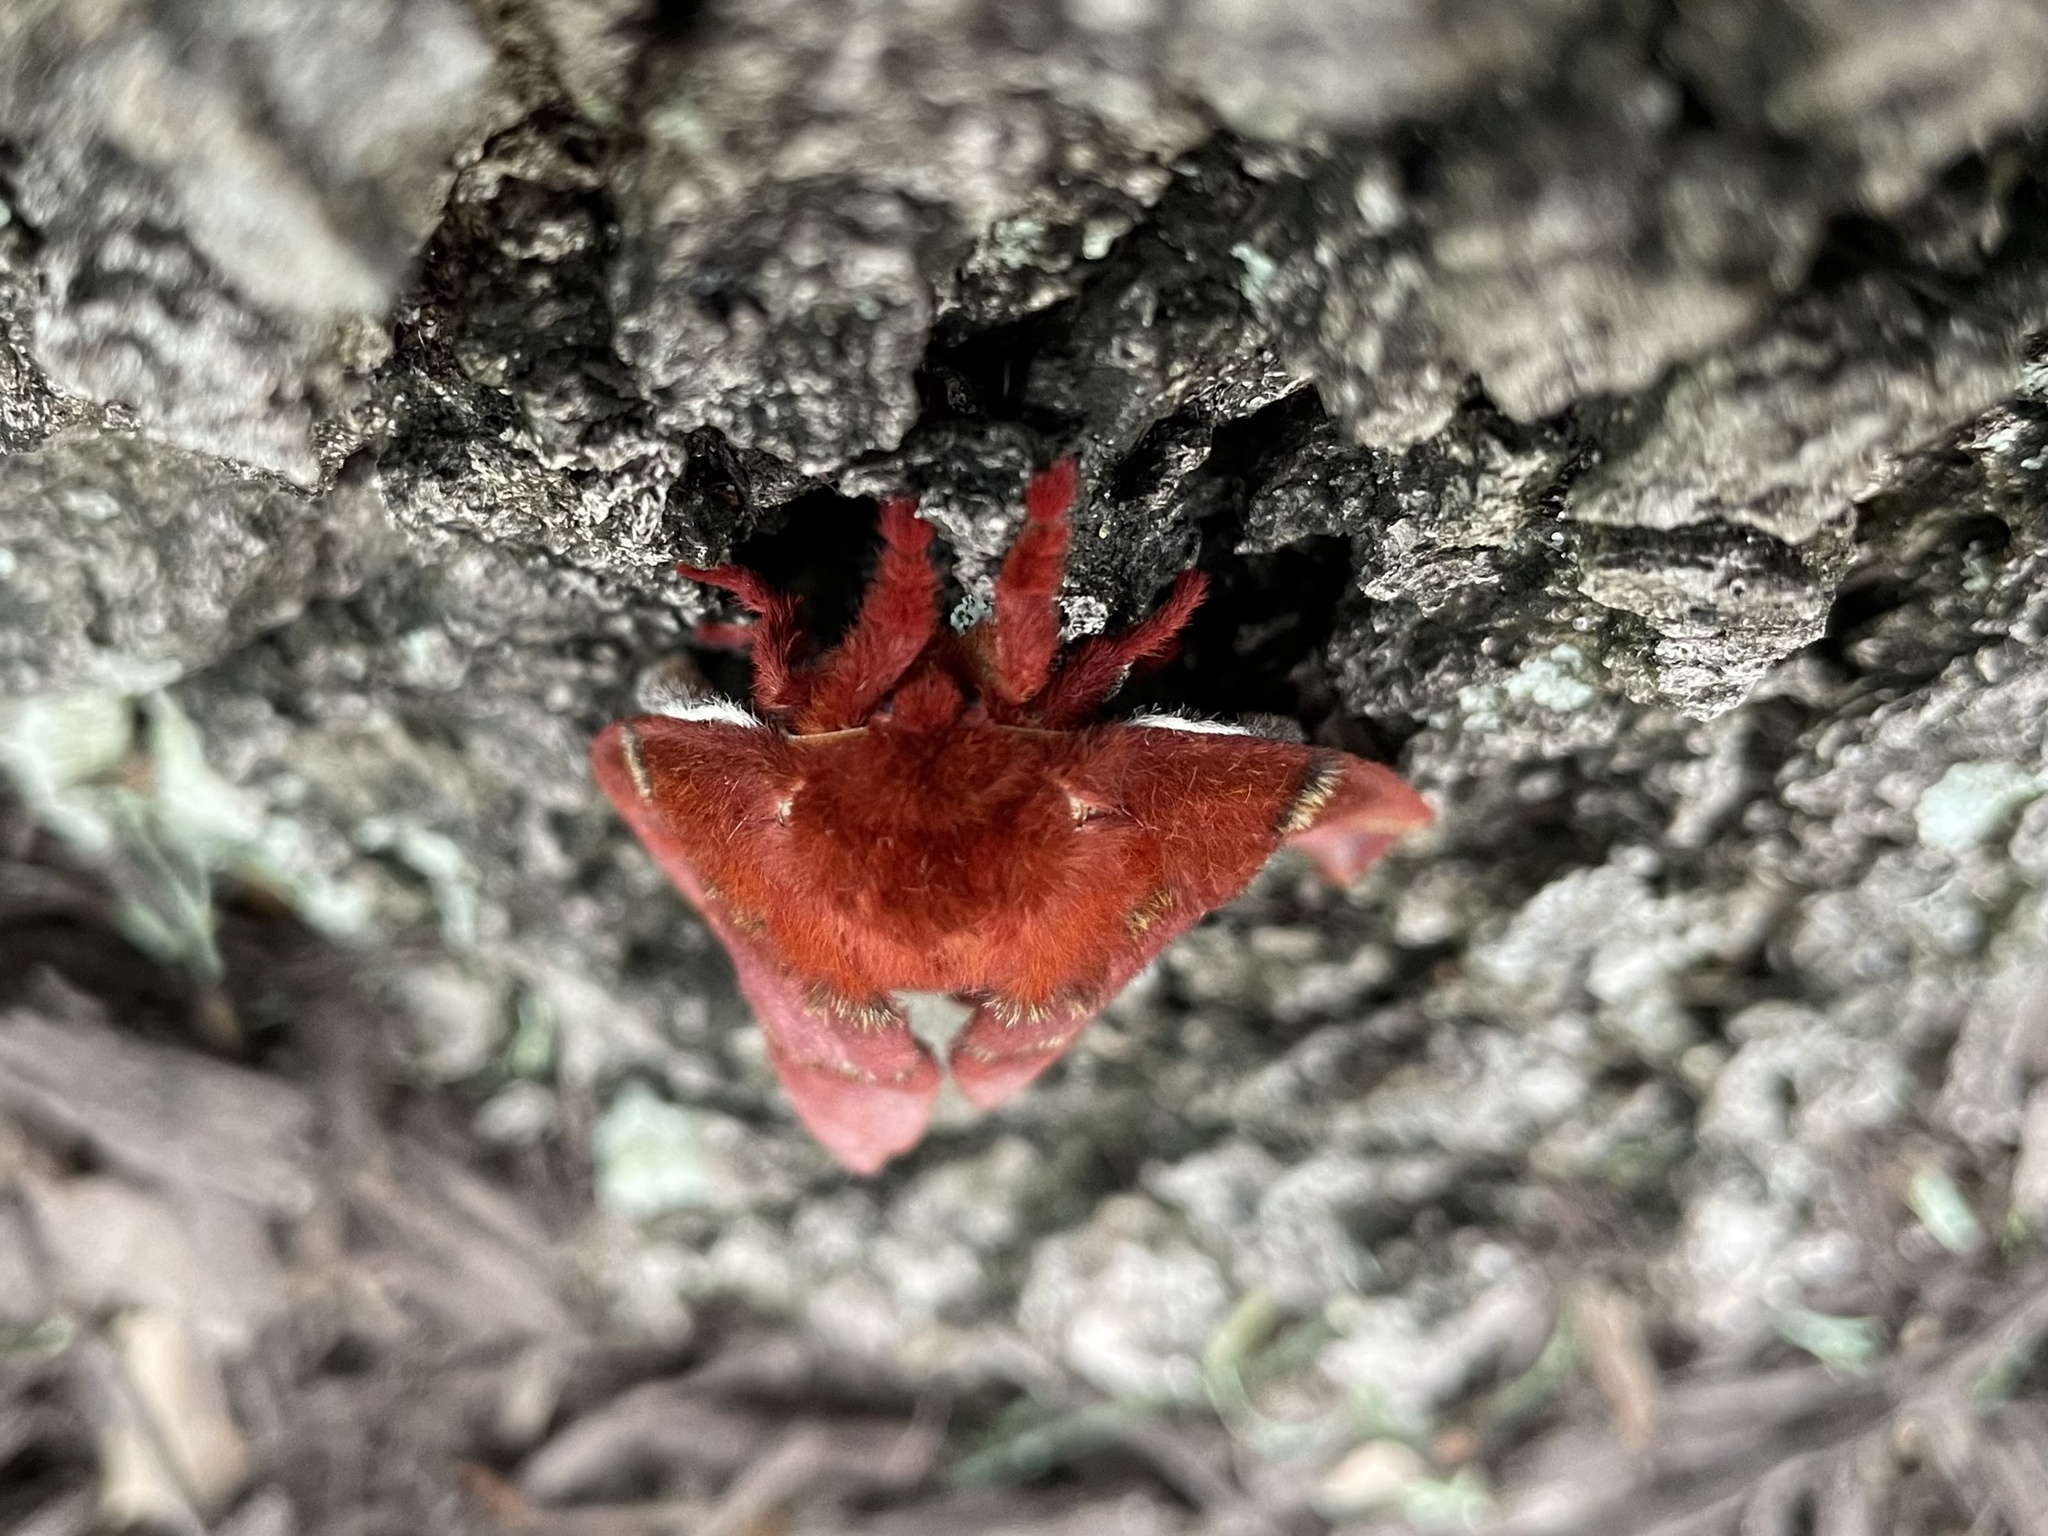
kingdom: Animalia
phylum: Arthropoda
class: Insecta
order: Lepidoptera
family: Saturniidae
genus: Automeris
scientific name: Automeris io
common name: Io moth
